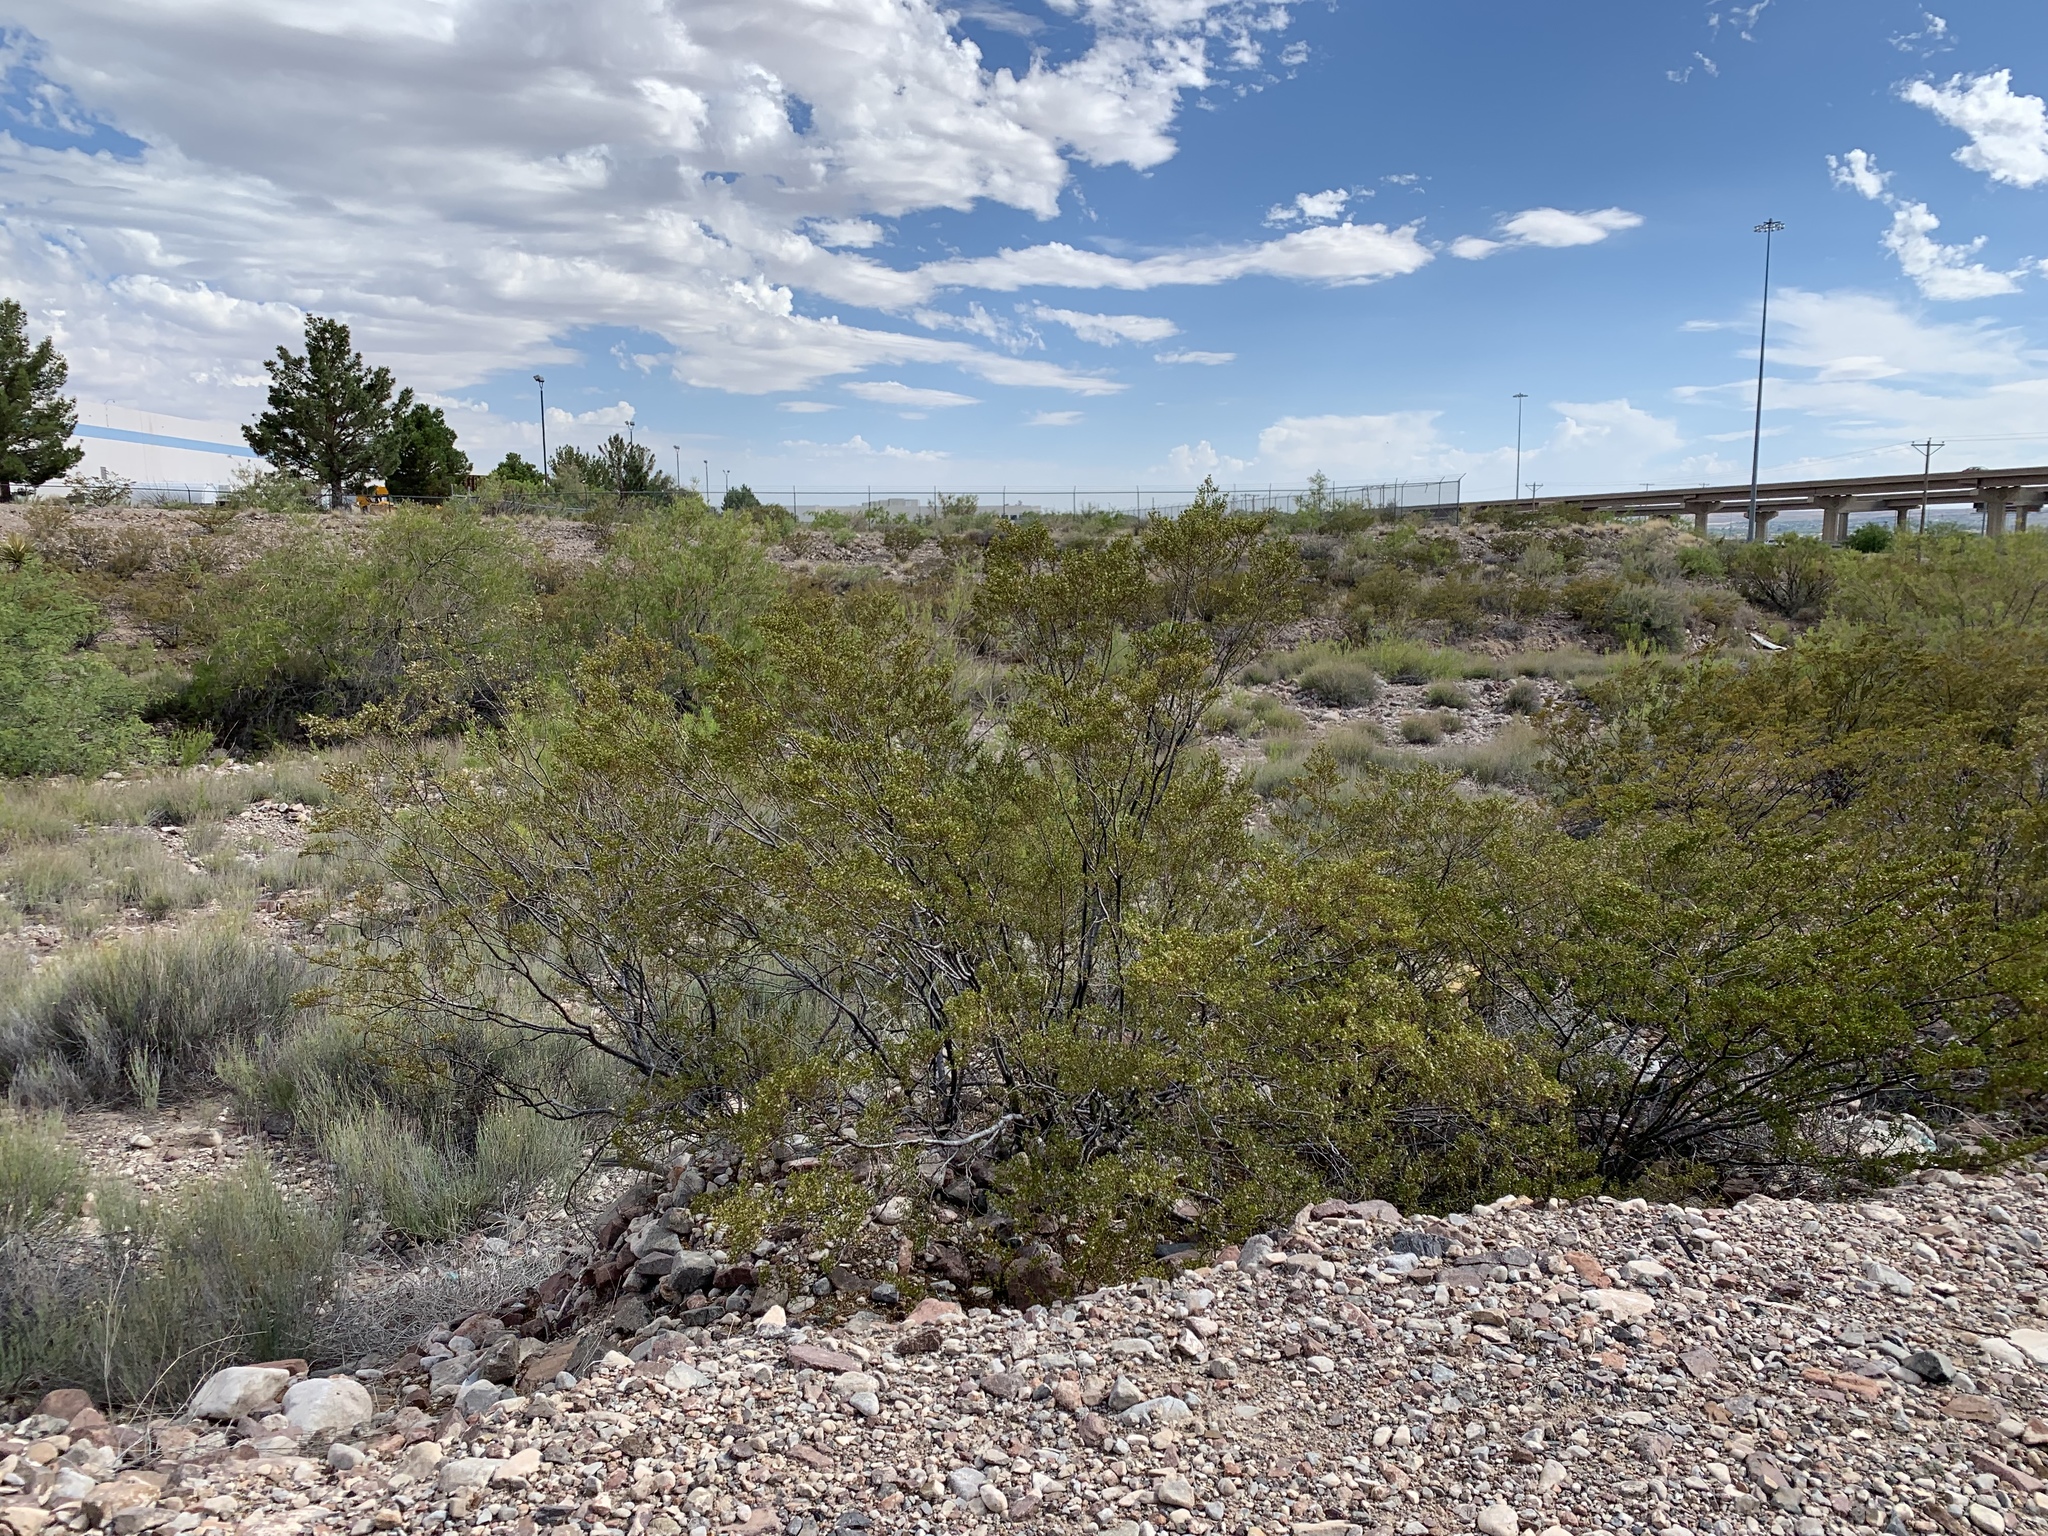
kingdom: Plantae
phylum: Tracheophyta
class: Magnoliopsida
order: Zygophyllales
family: Zygophyllaceae
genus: Larrea
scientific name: Larrea tridentata
